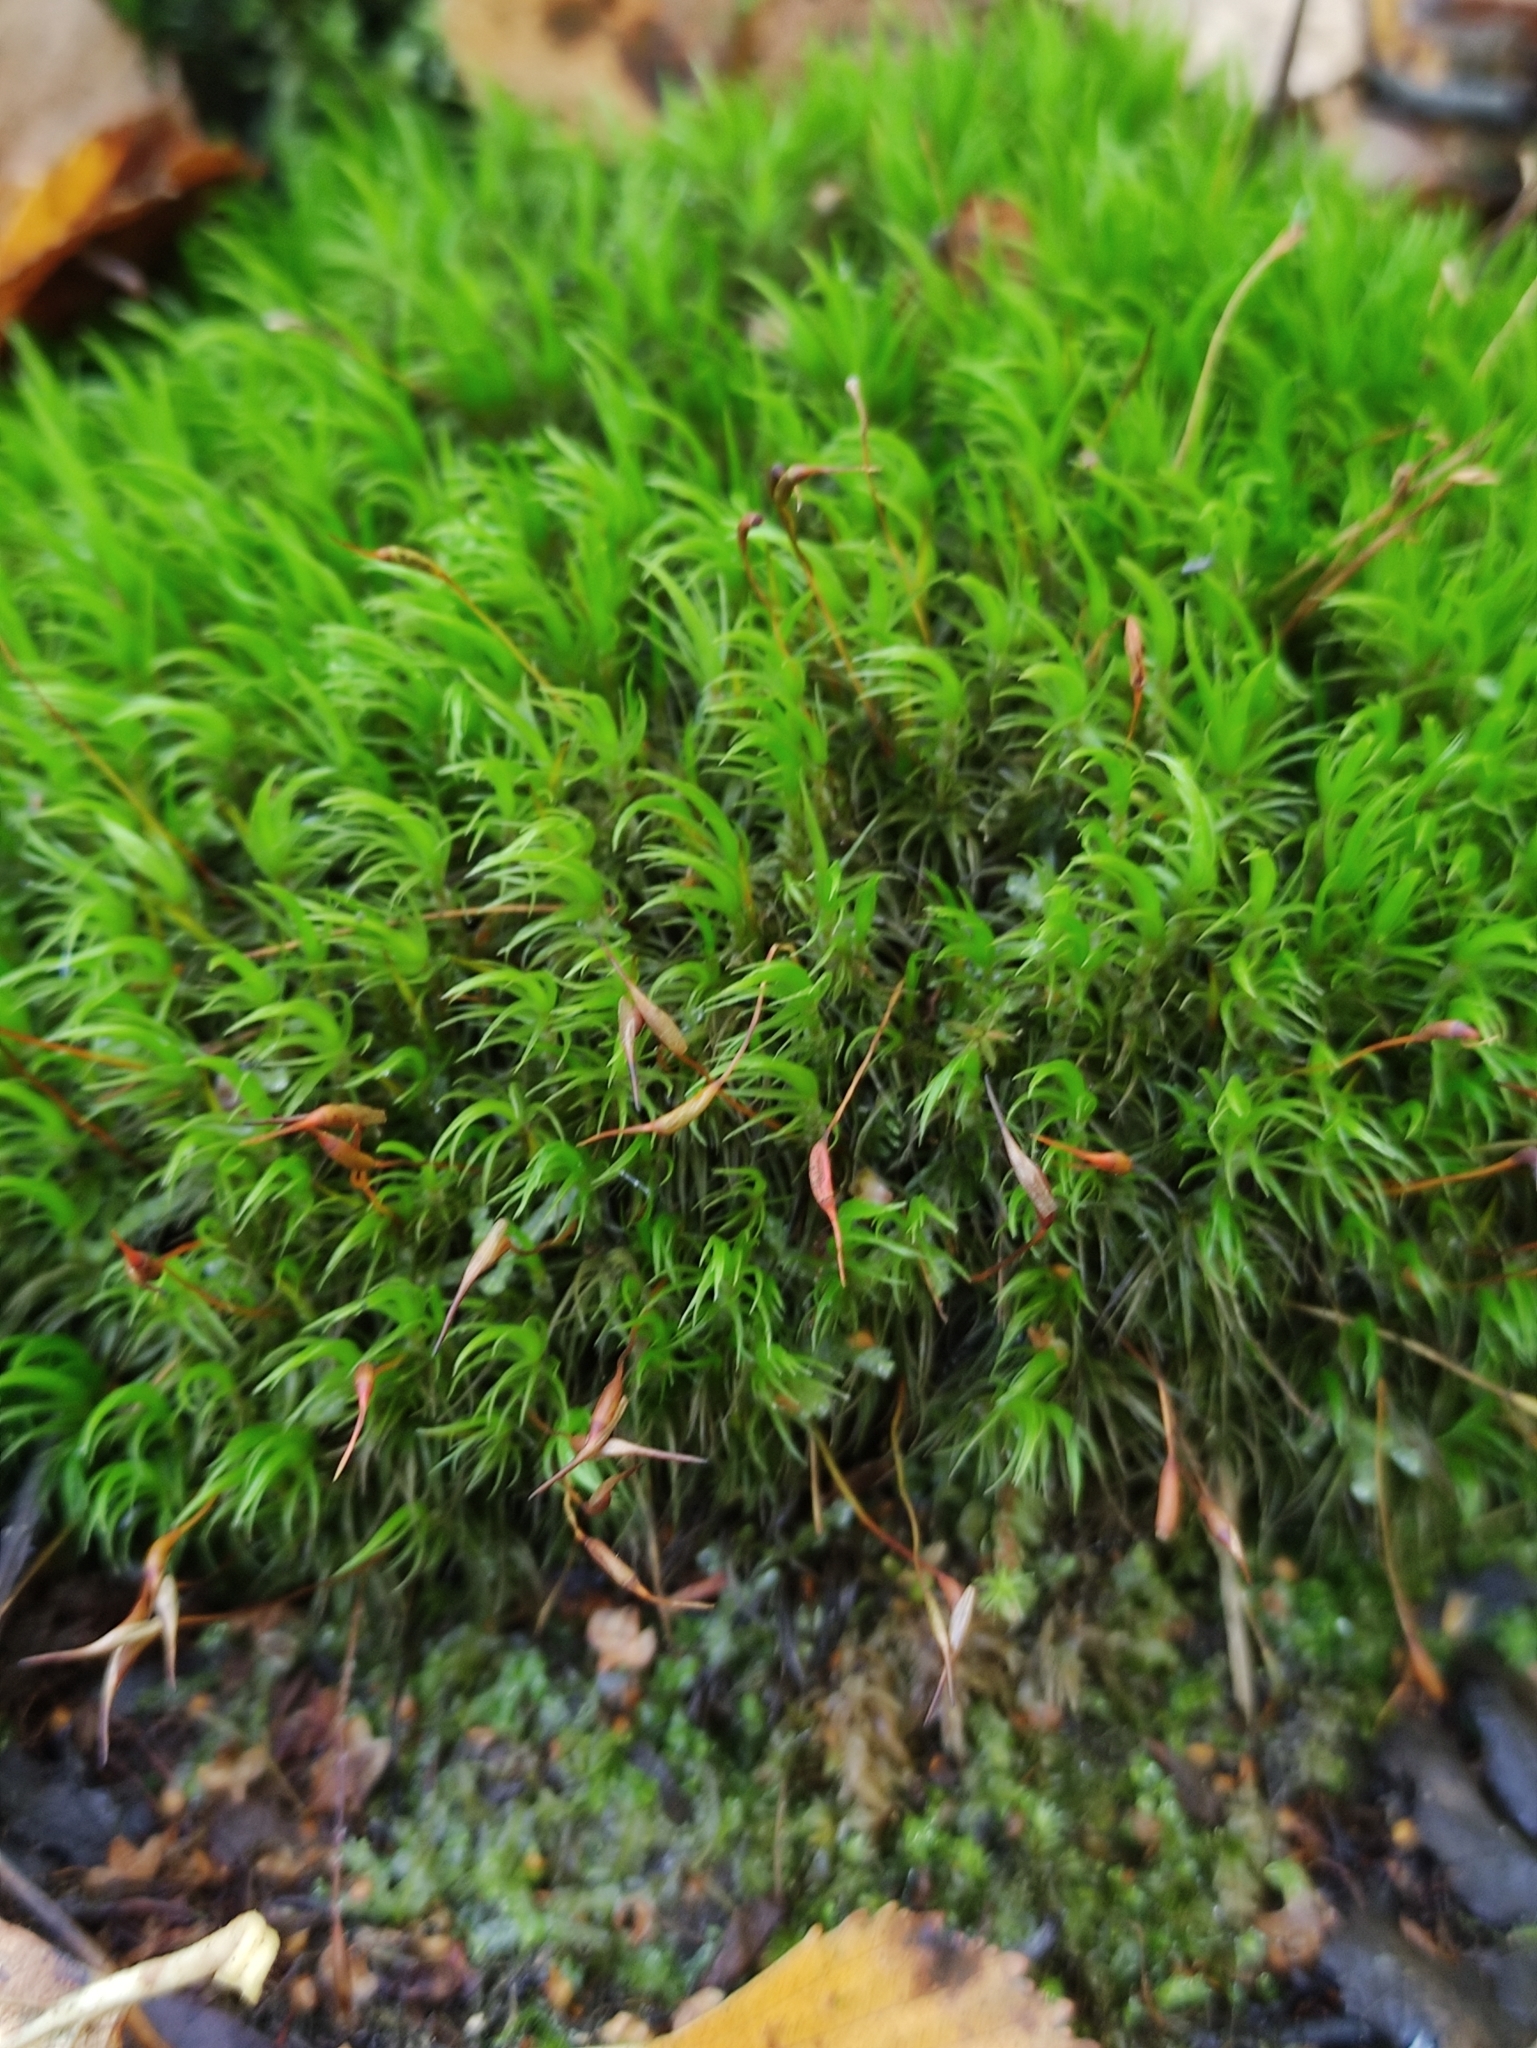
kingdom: Plantae
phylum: Bryophyta
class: Bryopsida
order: Dicranales
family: Dicranaceae
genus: Dicranum
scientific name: Dicranum scoparium
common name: Broom fork-moss
